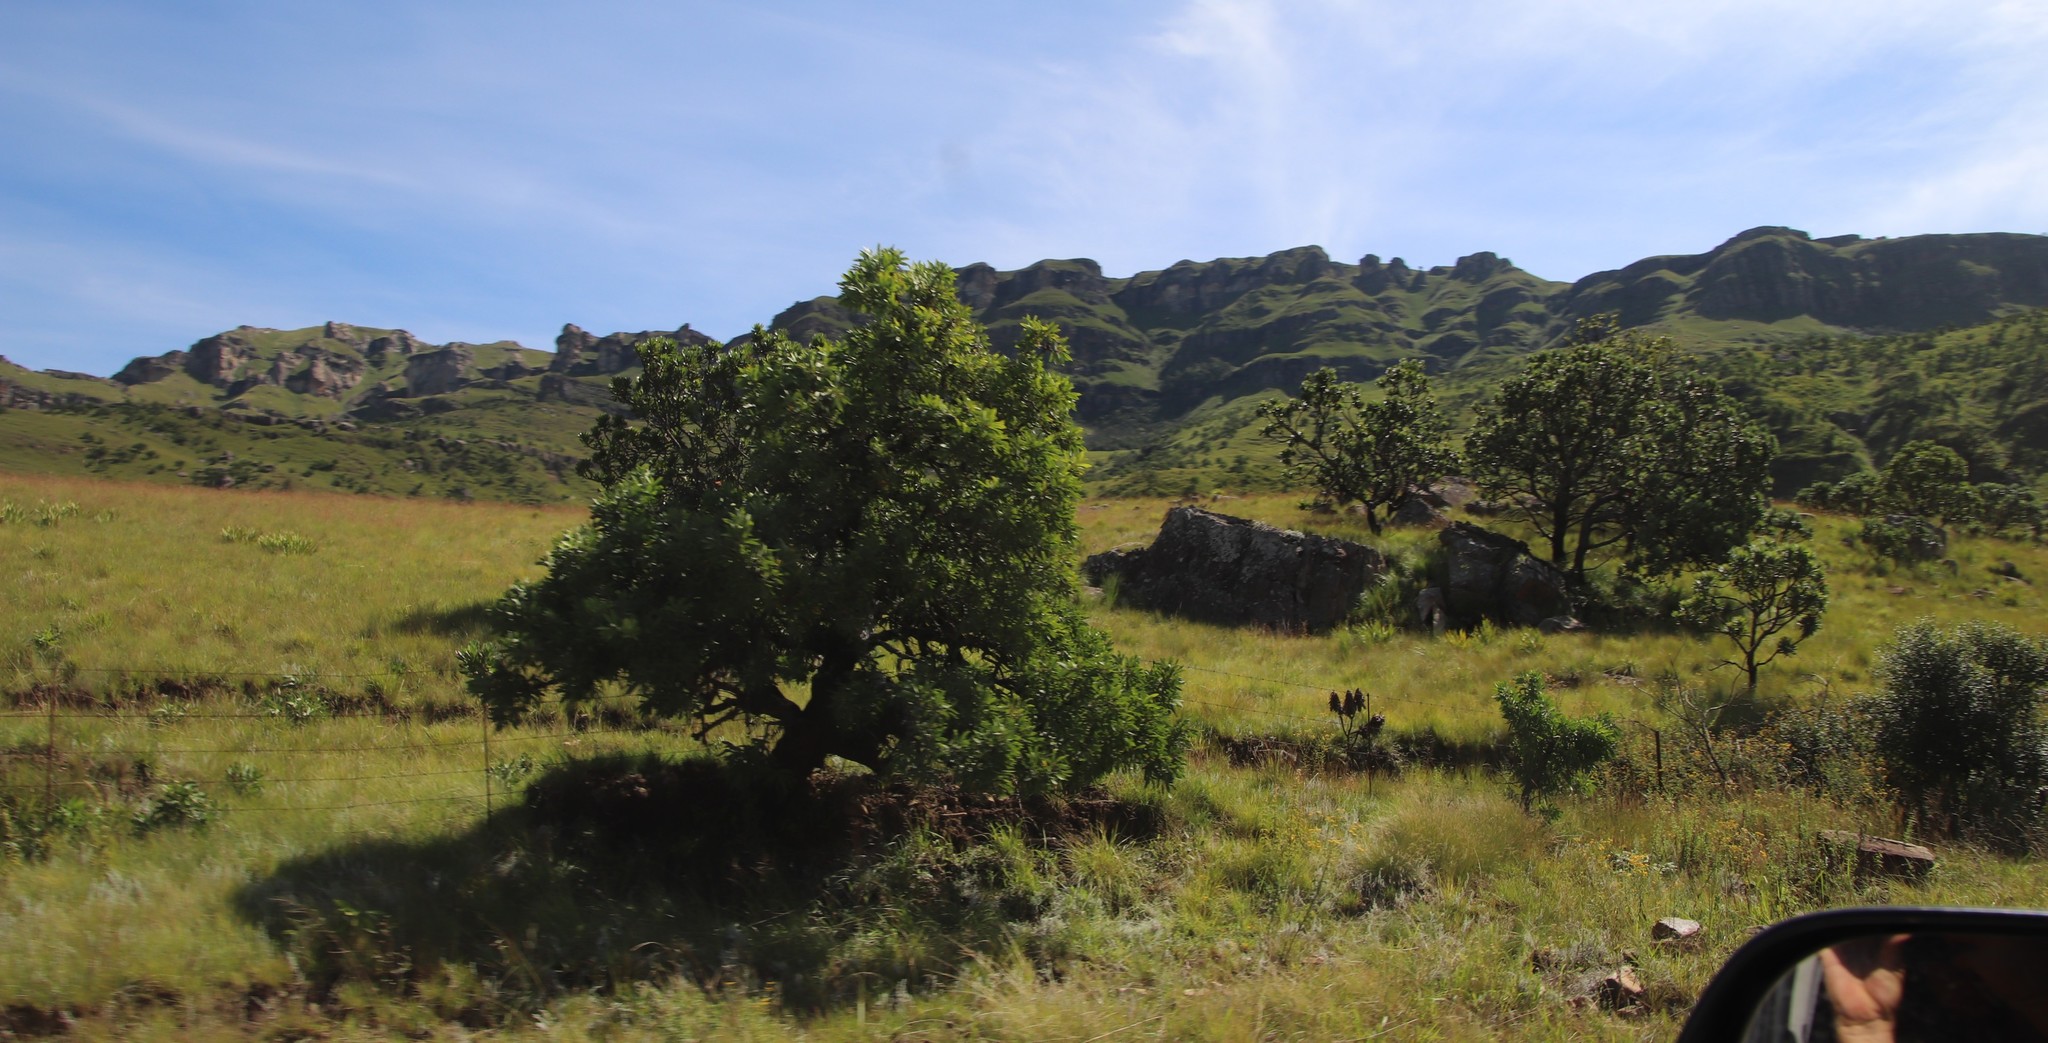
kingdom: Plantae
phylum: Tracheophyta
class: Magnoliopsida
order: Proteales
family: Proteaceae
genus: Protea
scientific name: Protea caffra
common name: Common sugarbush
